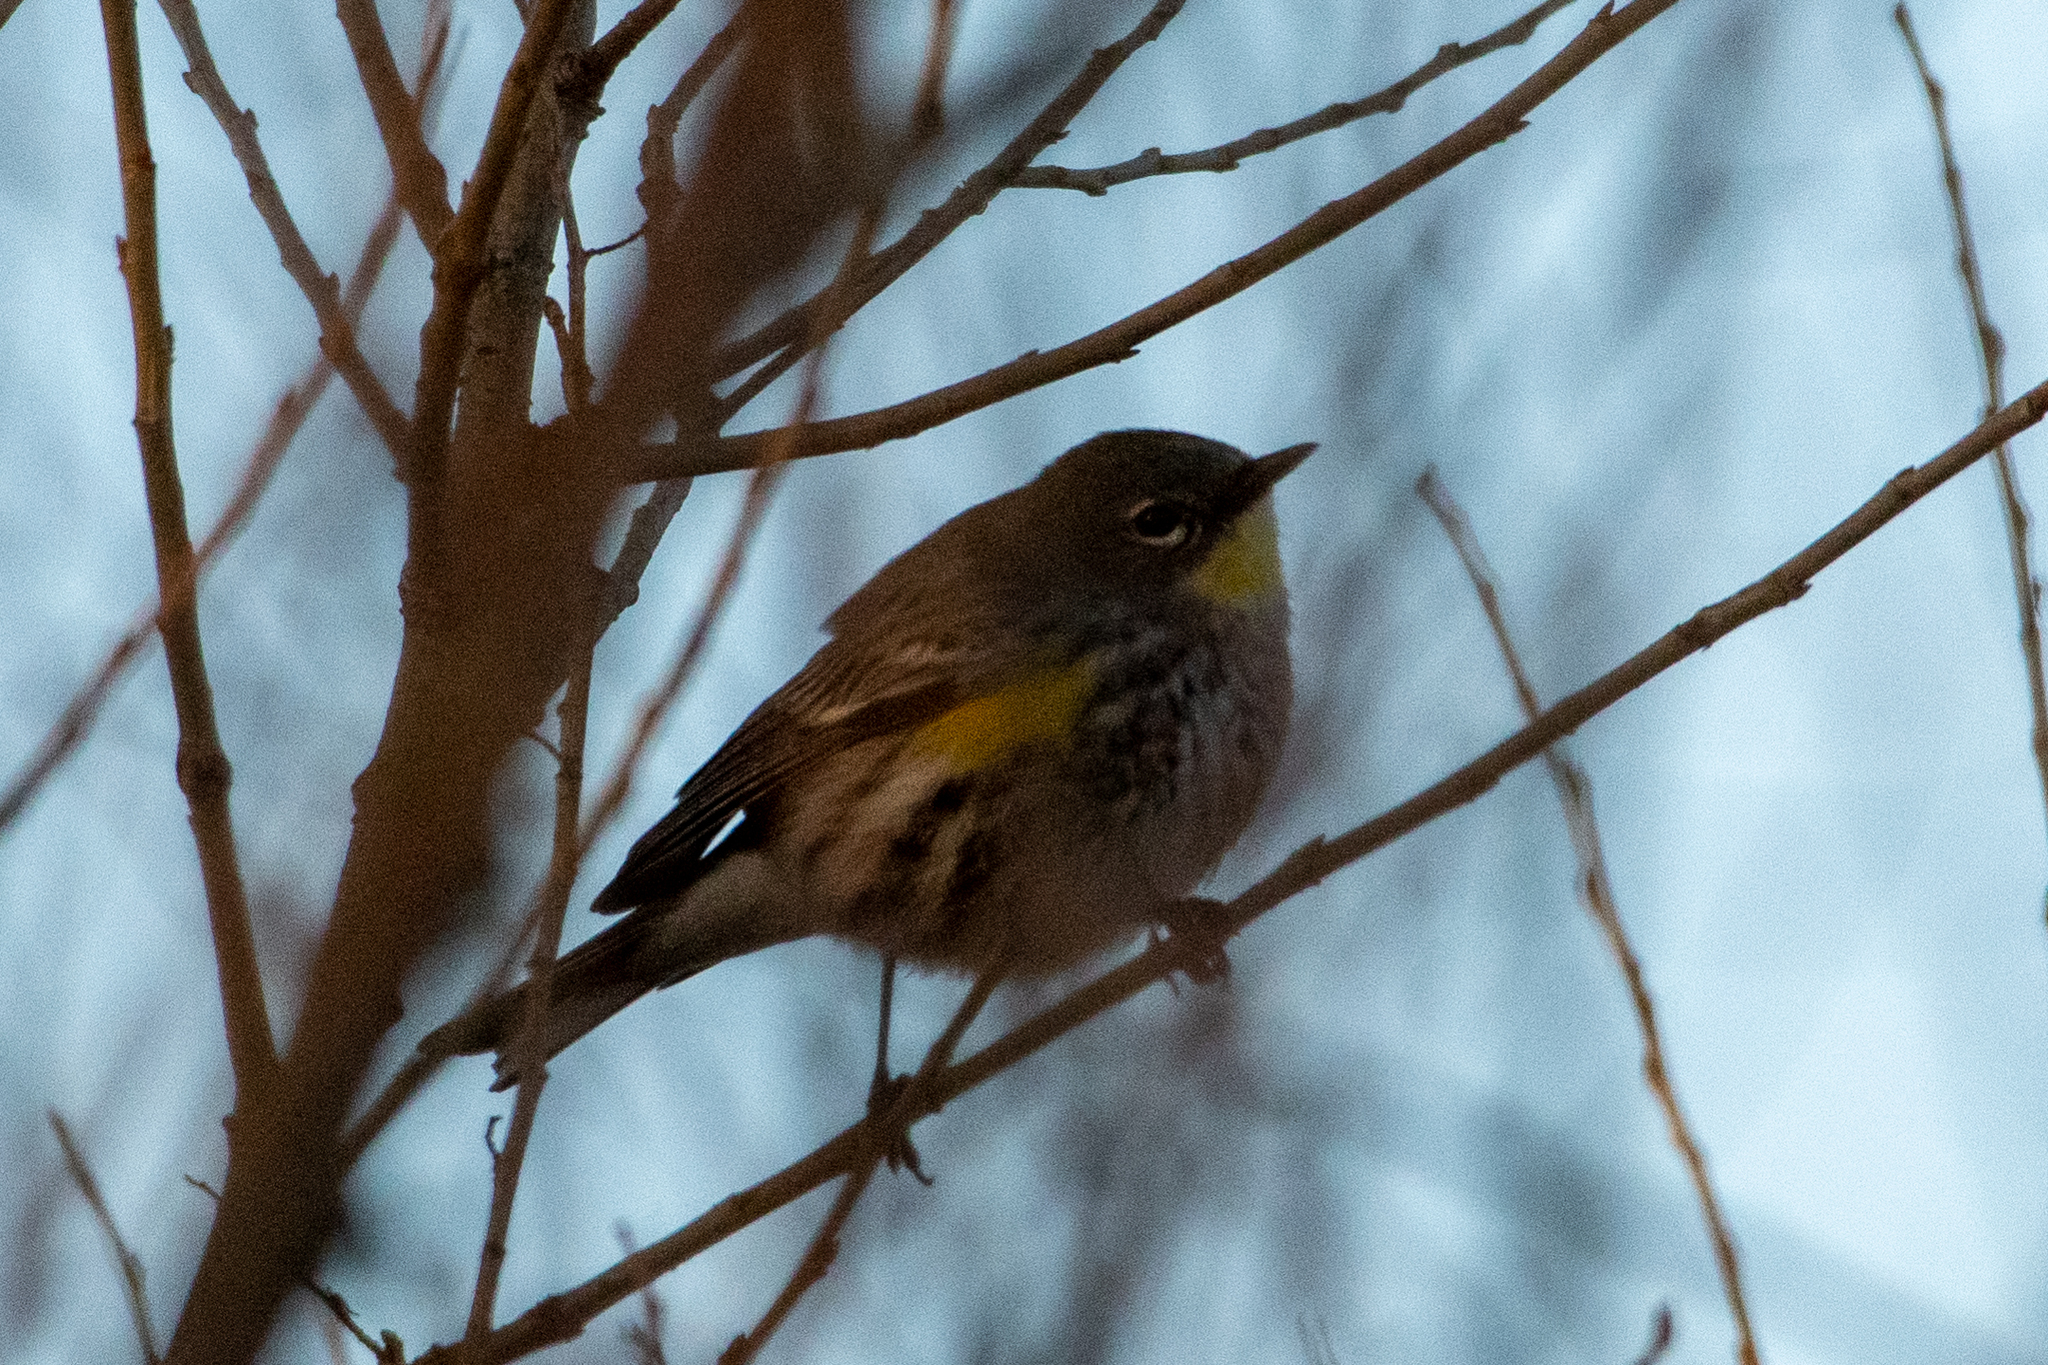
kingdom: Animalia
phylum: Chordata
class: Aves
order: Passeriformes
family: Parulidae
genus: Setophaga
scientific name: Setophaga coronata
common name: Myrtle warbler
